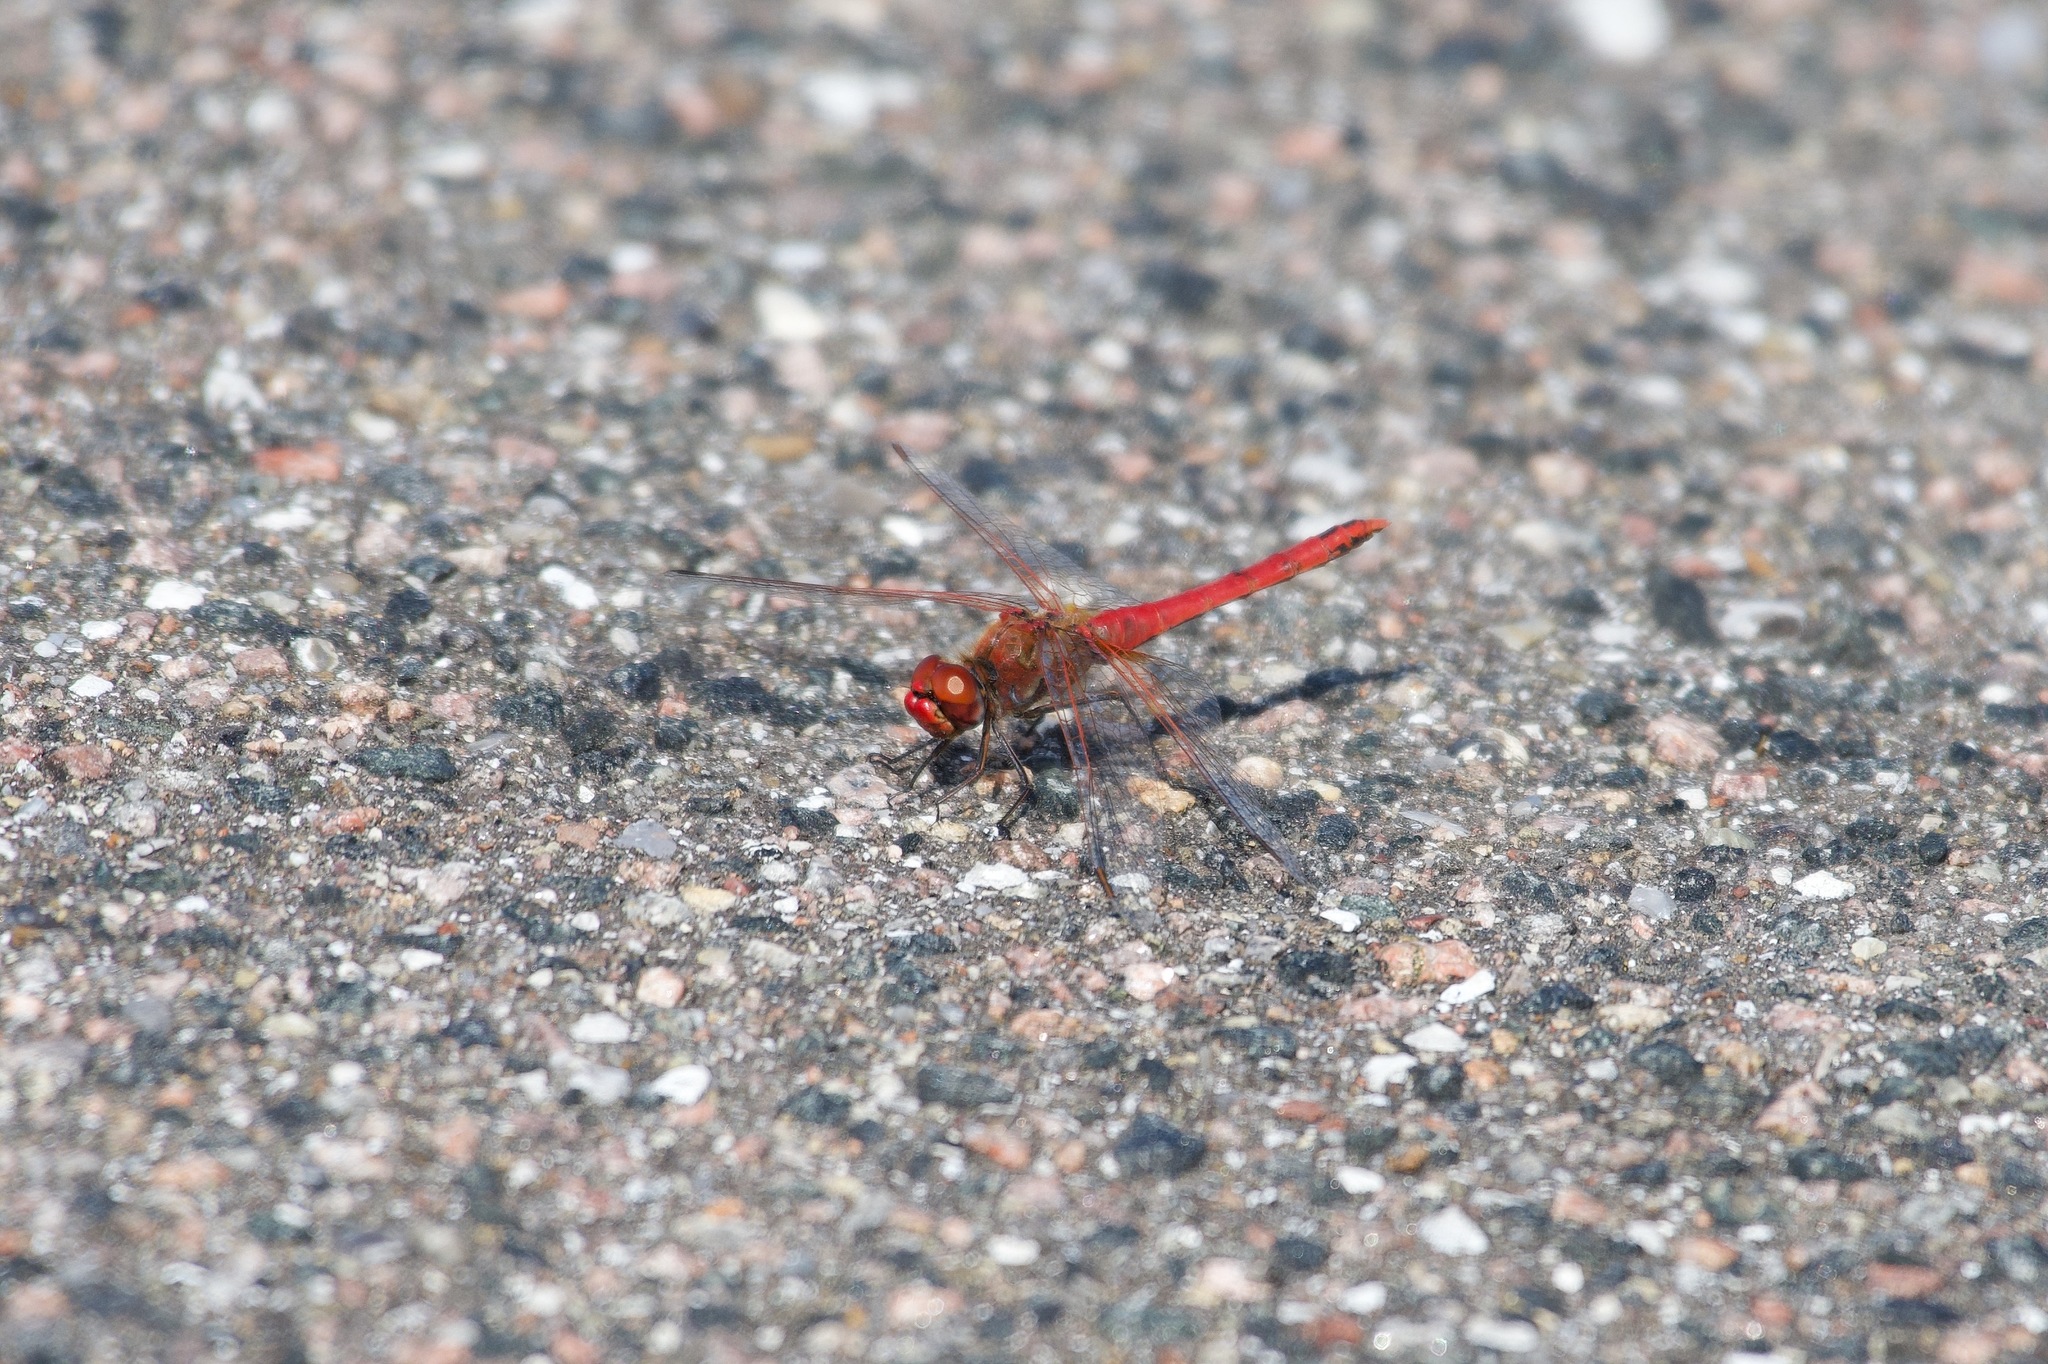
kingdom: Animalia
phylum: Arthropoda
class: Insecta
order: Odonata
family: Libellulidae
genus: Sympetrum
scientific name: Sympetrum fonscolombii
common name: Red-veined darter
